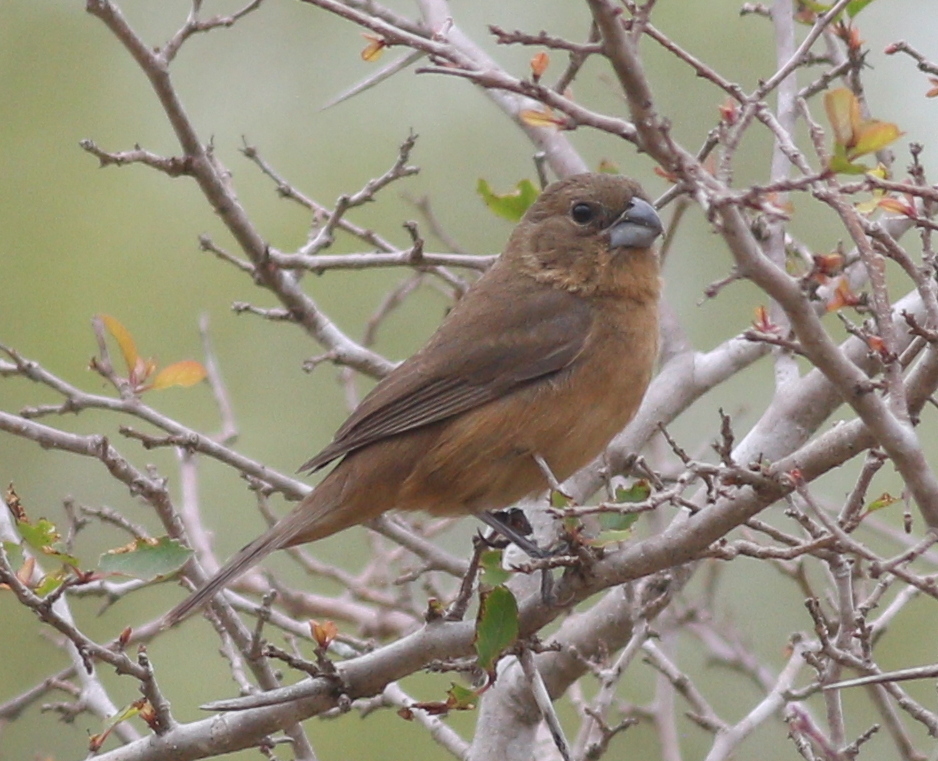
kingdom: Animalia
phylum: Chordata
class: Aves
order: Passeriformes
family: Cardinalidae
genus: Cyanoloxia
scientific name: Cyanoloxia glaucocaerulea
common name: Glaucous-blue grosbeak
